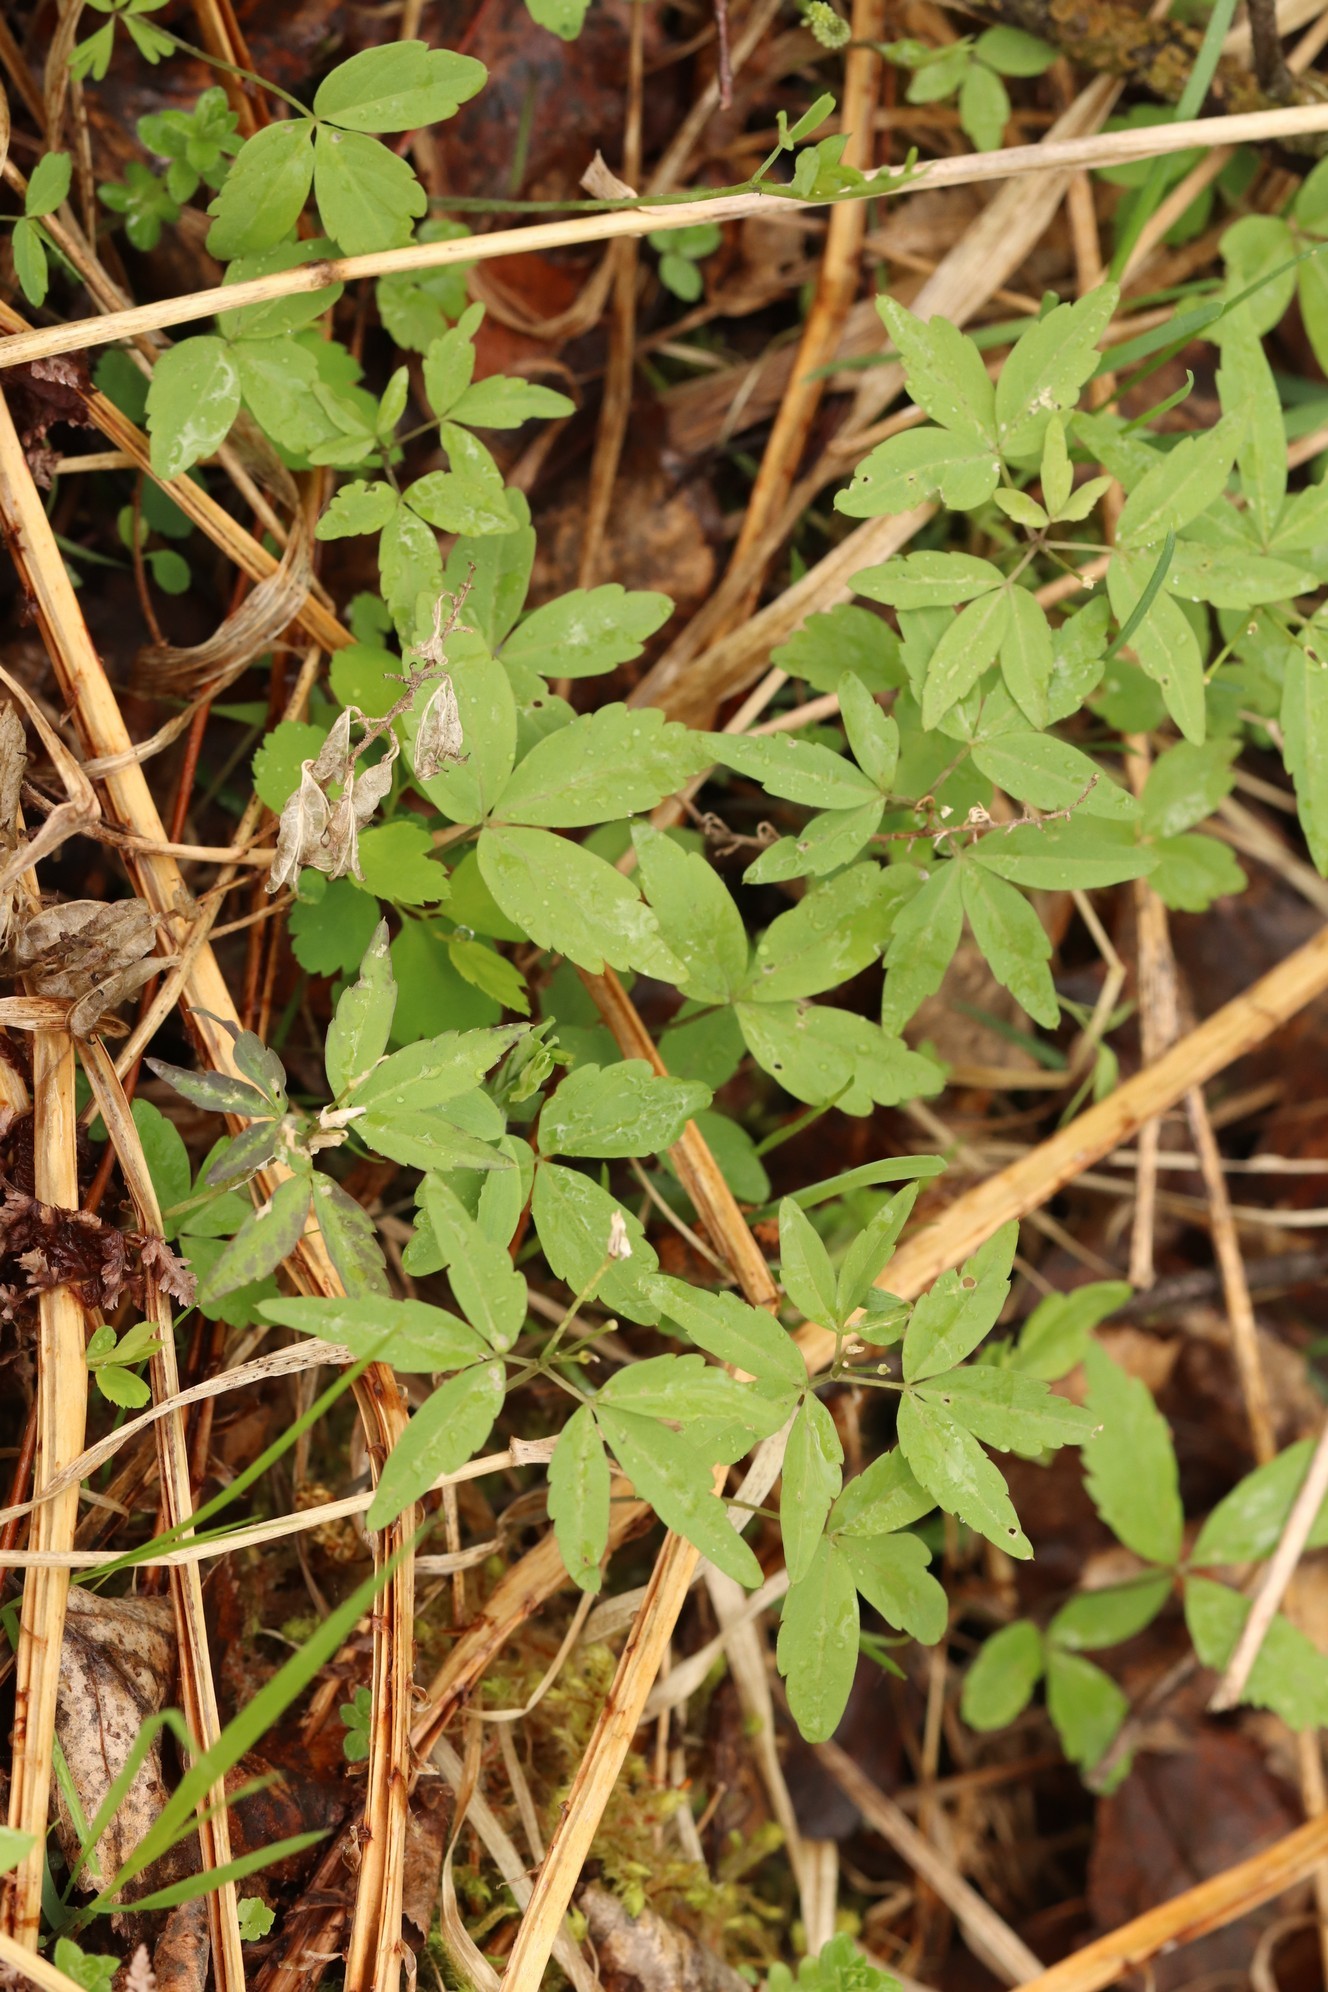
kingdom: Plantae
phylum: Tracheophyta
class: Magnoliopsida
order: Brassicales
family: Brassicaceae
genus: Cardamine
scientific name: Cardamine altaica
